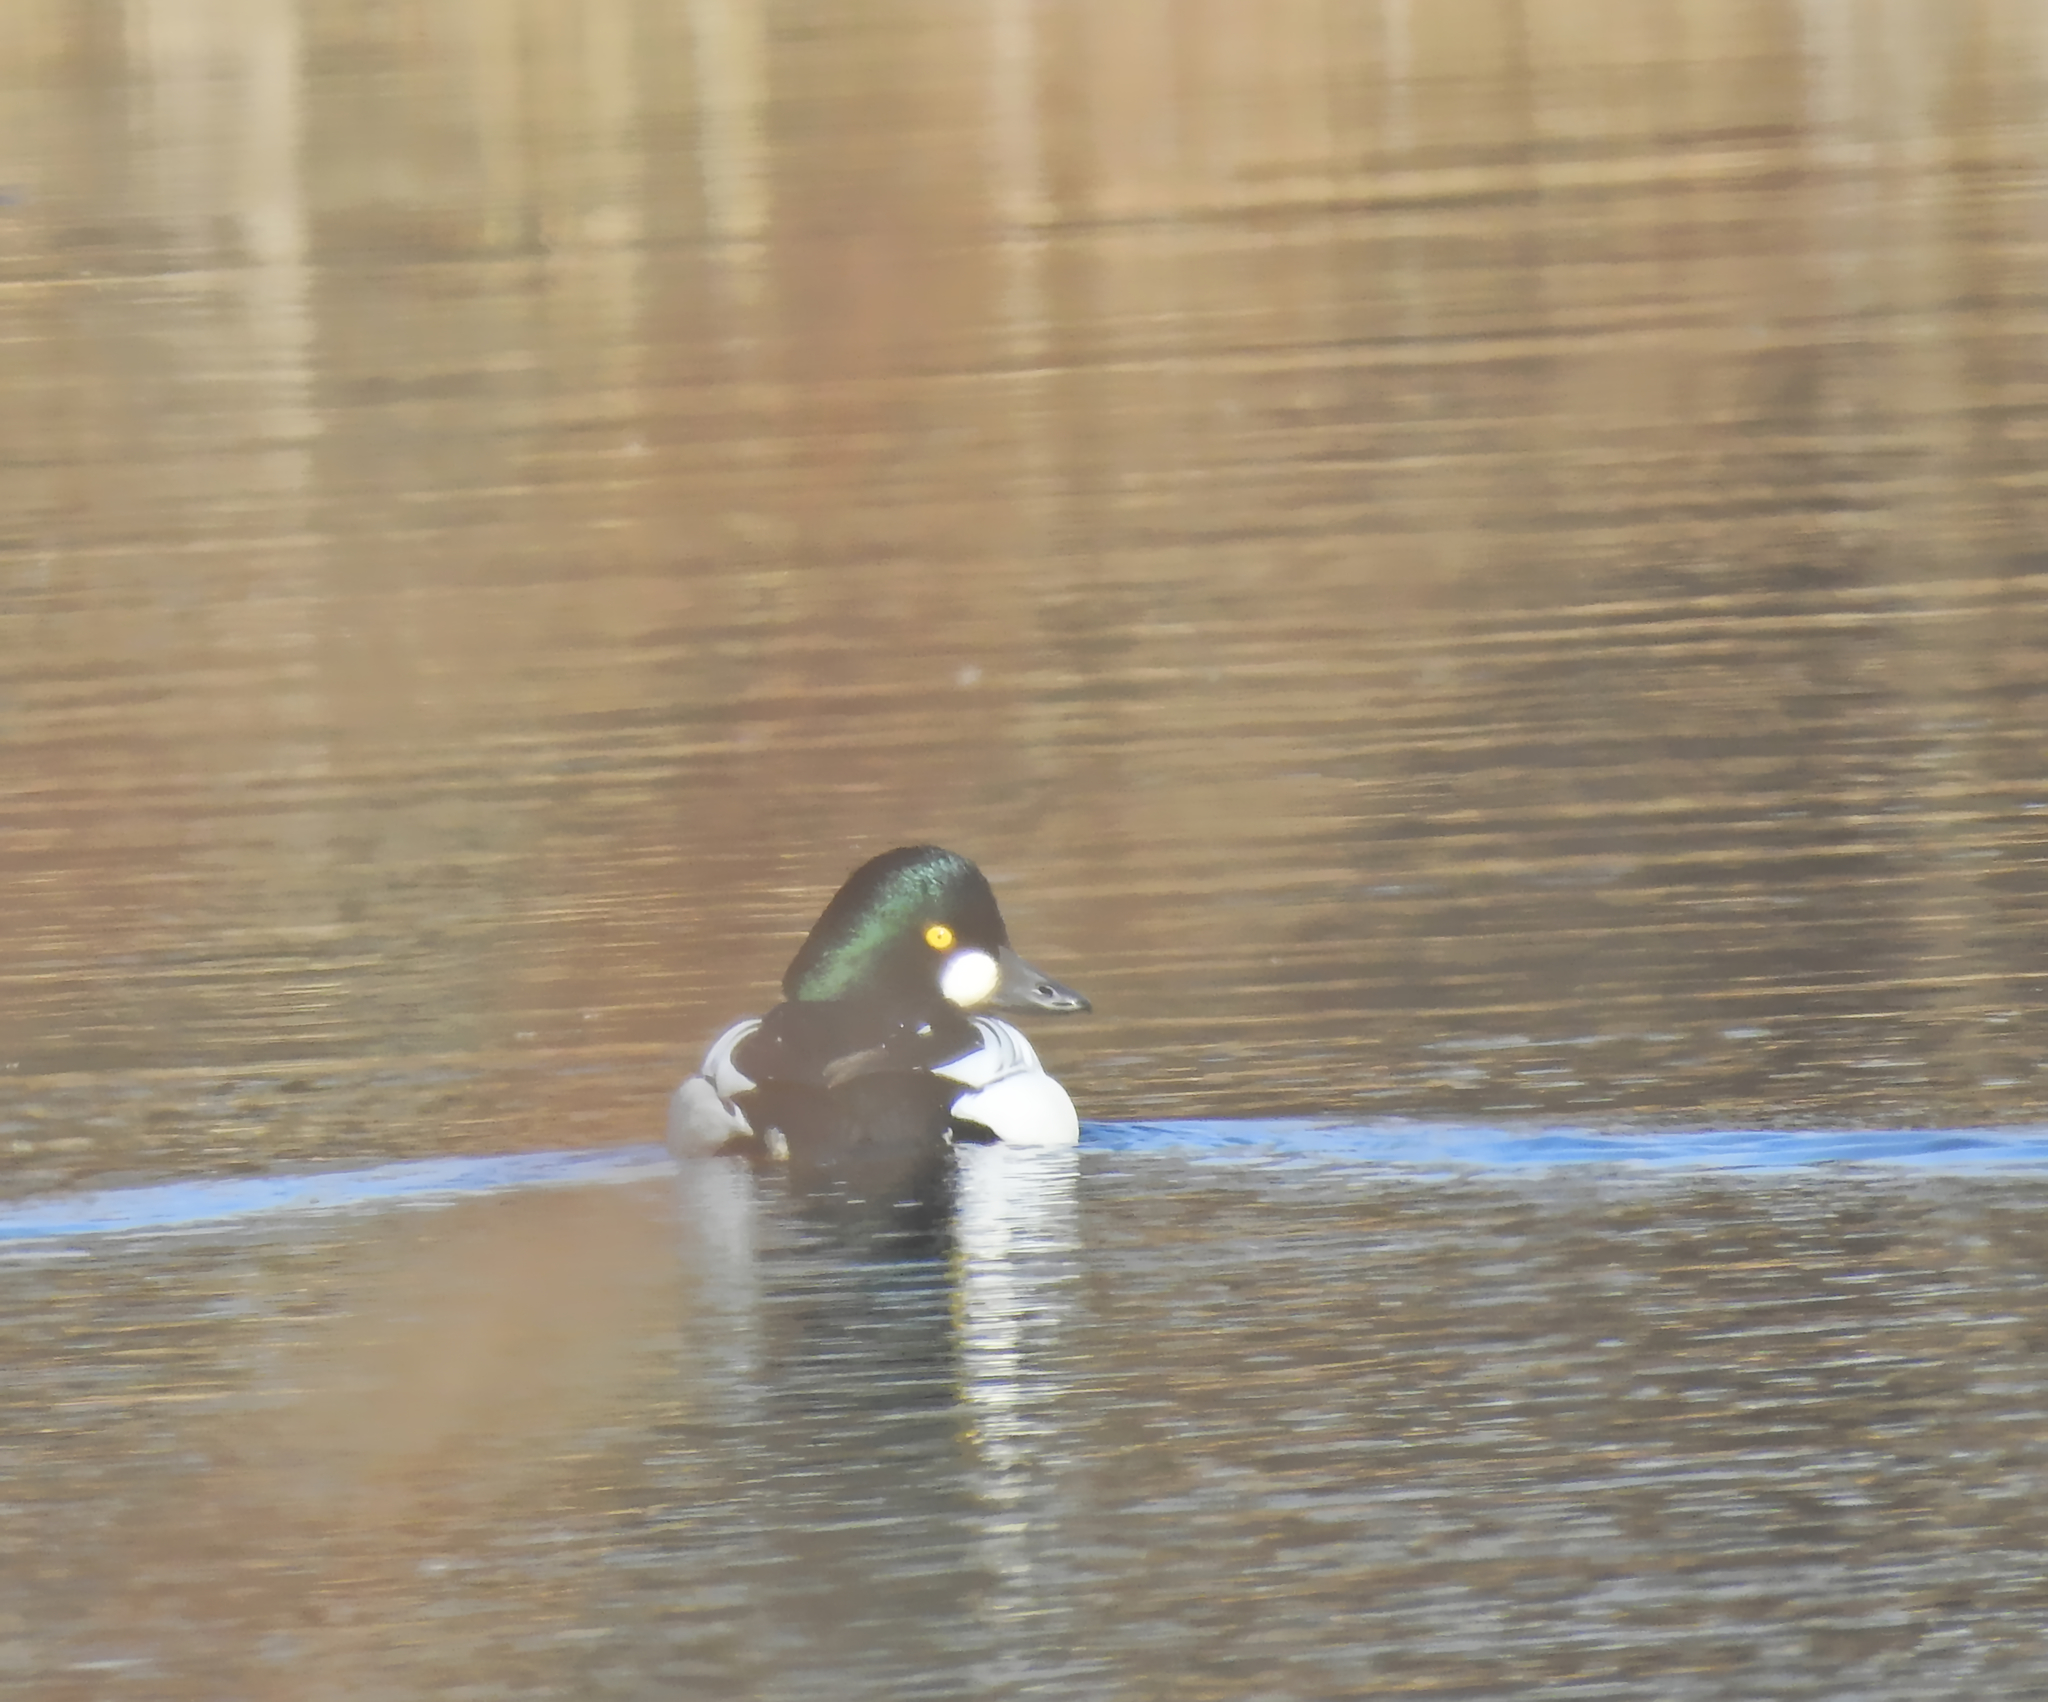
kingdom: Animalia
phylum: Chordata
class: Aves
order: Anseriformes
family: Anatidae
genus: Bucephala
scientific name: Bucephala clangula
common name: Common goldeneye
